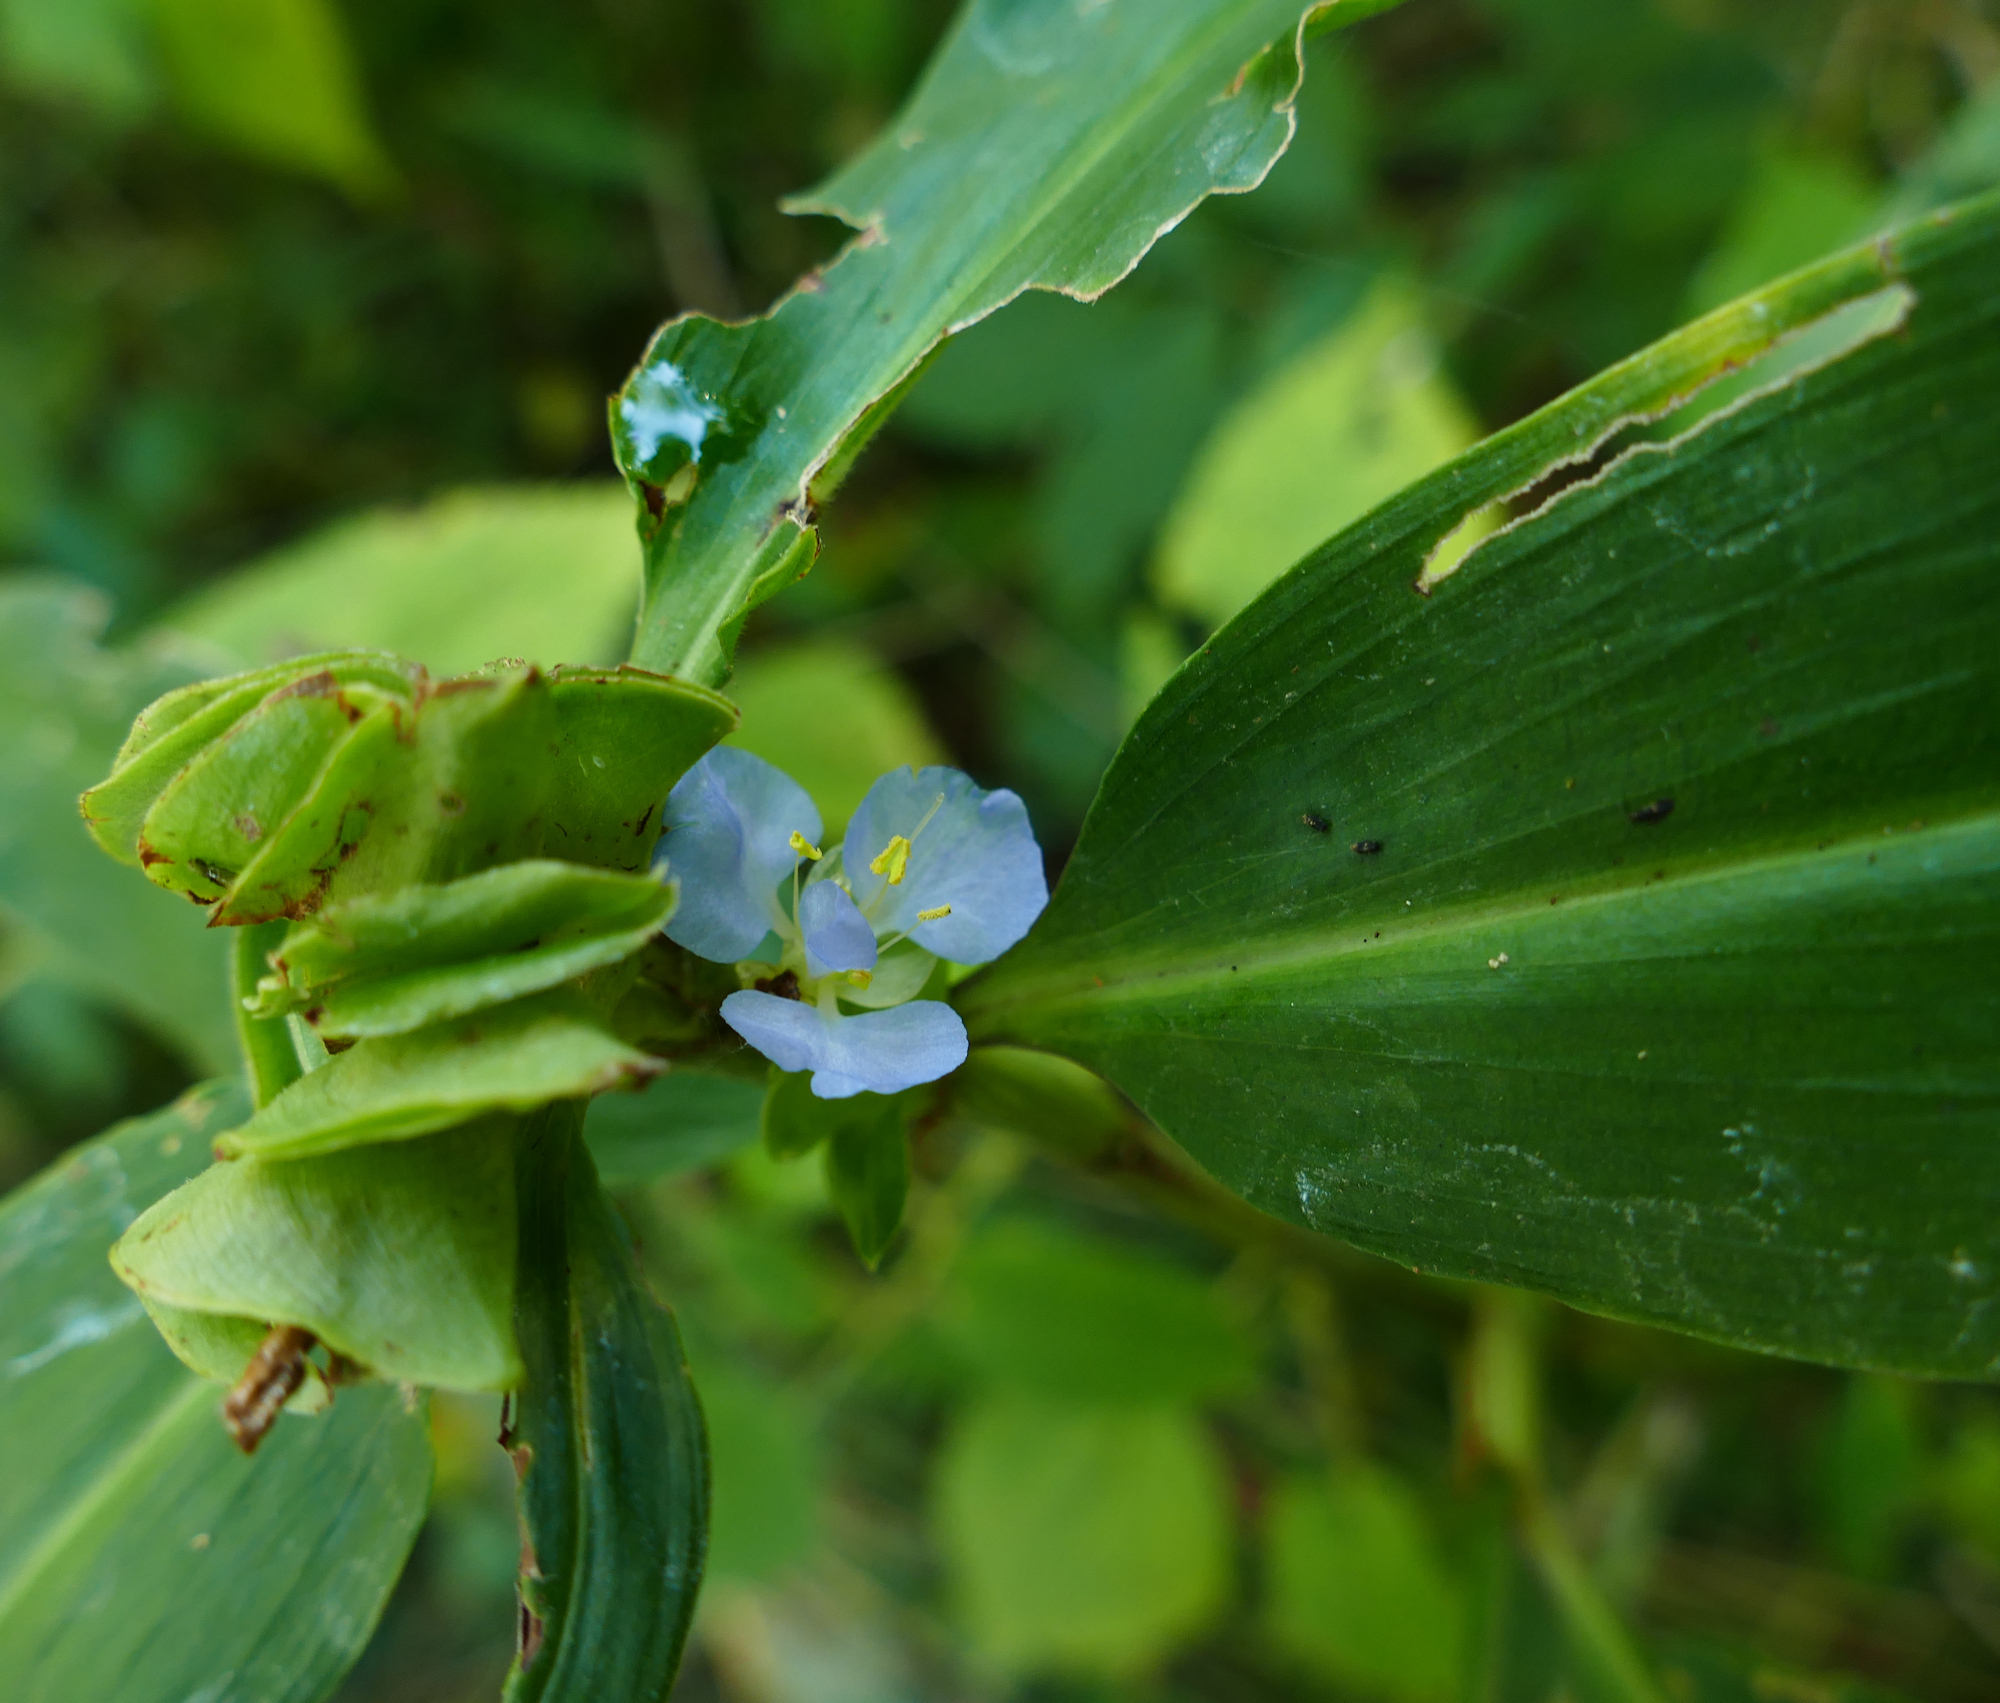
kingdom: Plantae
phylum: Tracheophyta
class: Liliopsida
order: Commelinales
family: Commelinaceae
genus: Commelina
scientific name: Commelina virginica
